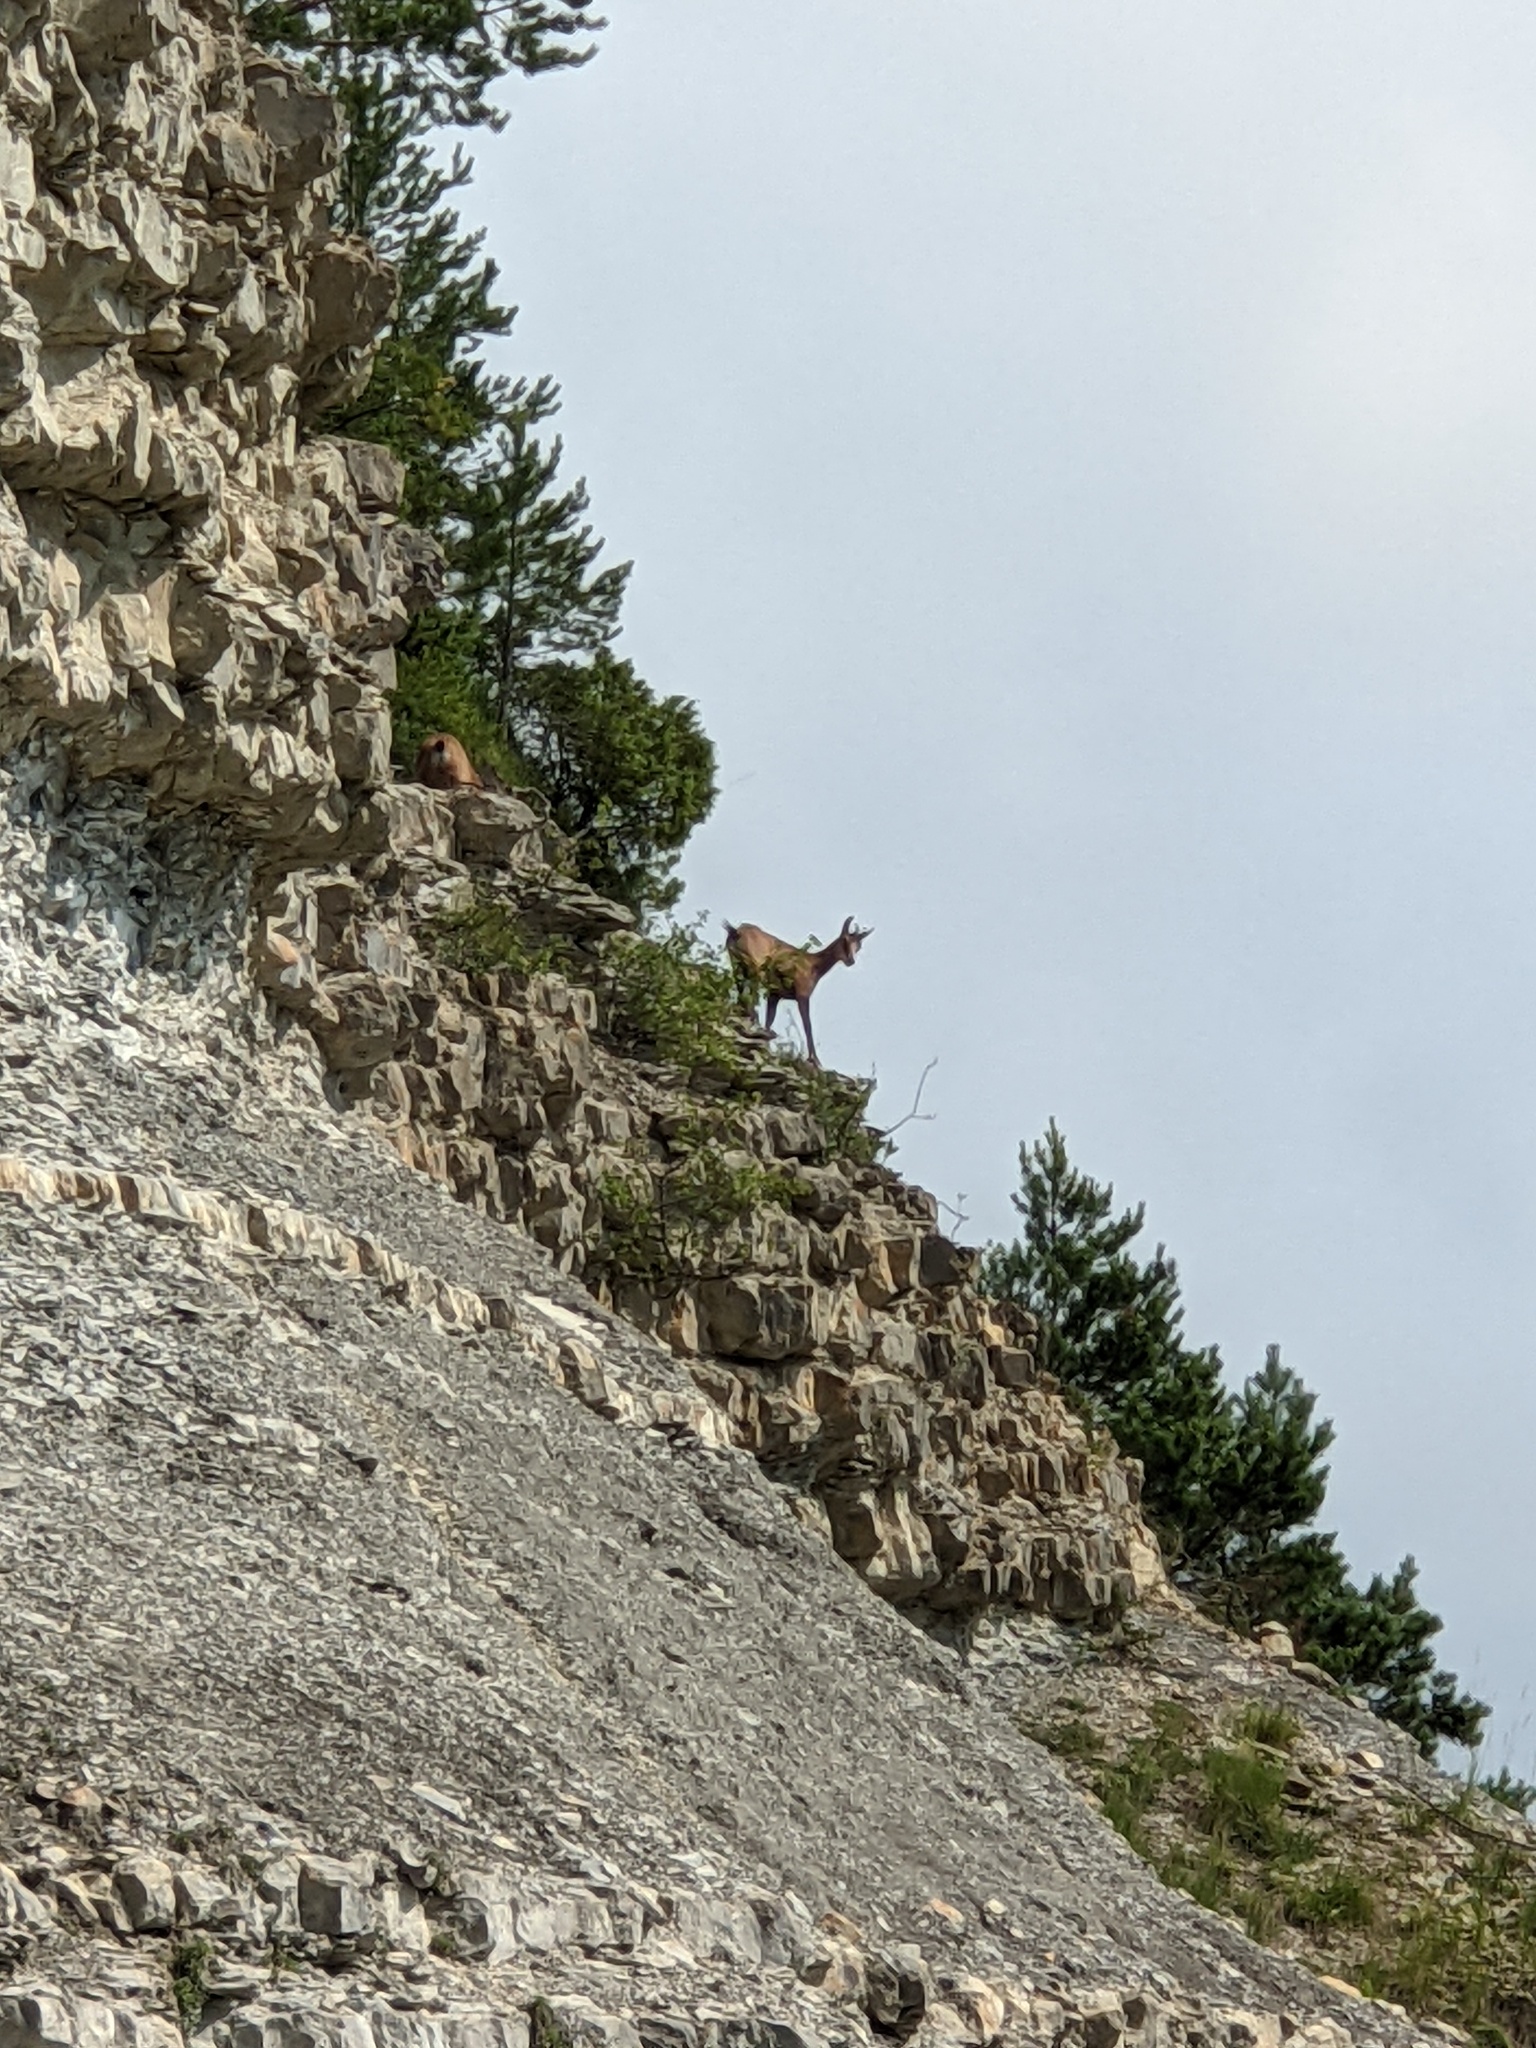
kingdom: Animalia
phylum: Chordata
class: Mammalia
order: Artiodactyla
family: Bovidae
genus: Rupicapra
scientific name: Rupicapra rupicapra
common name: Chamois
